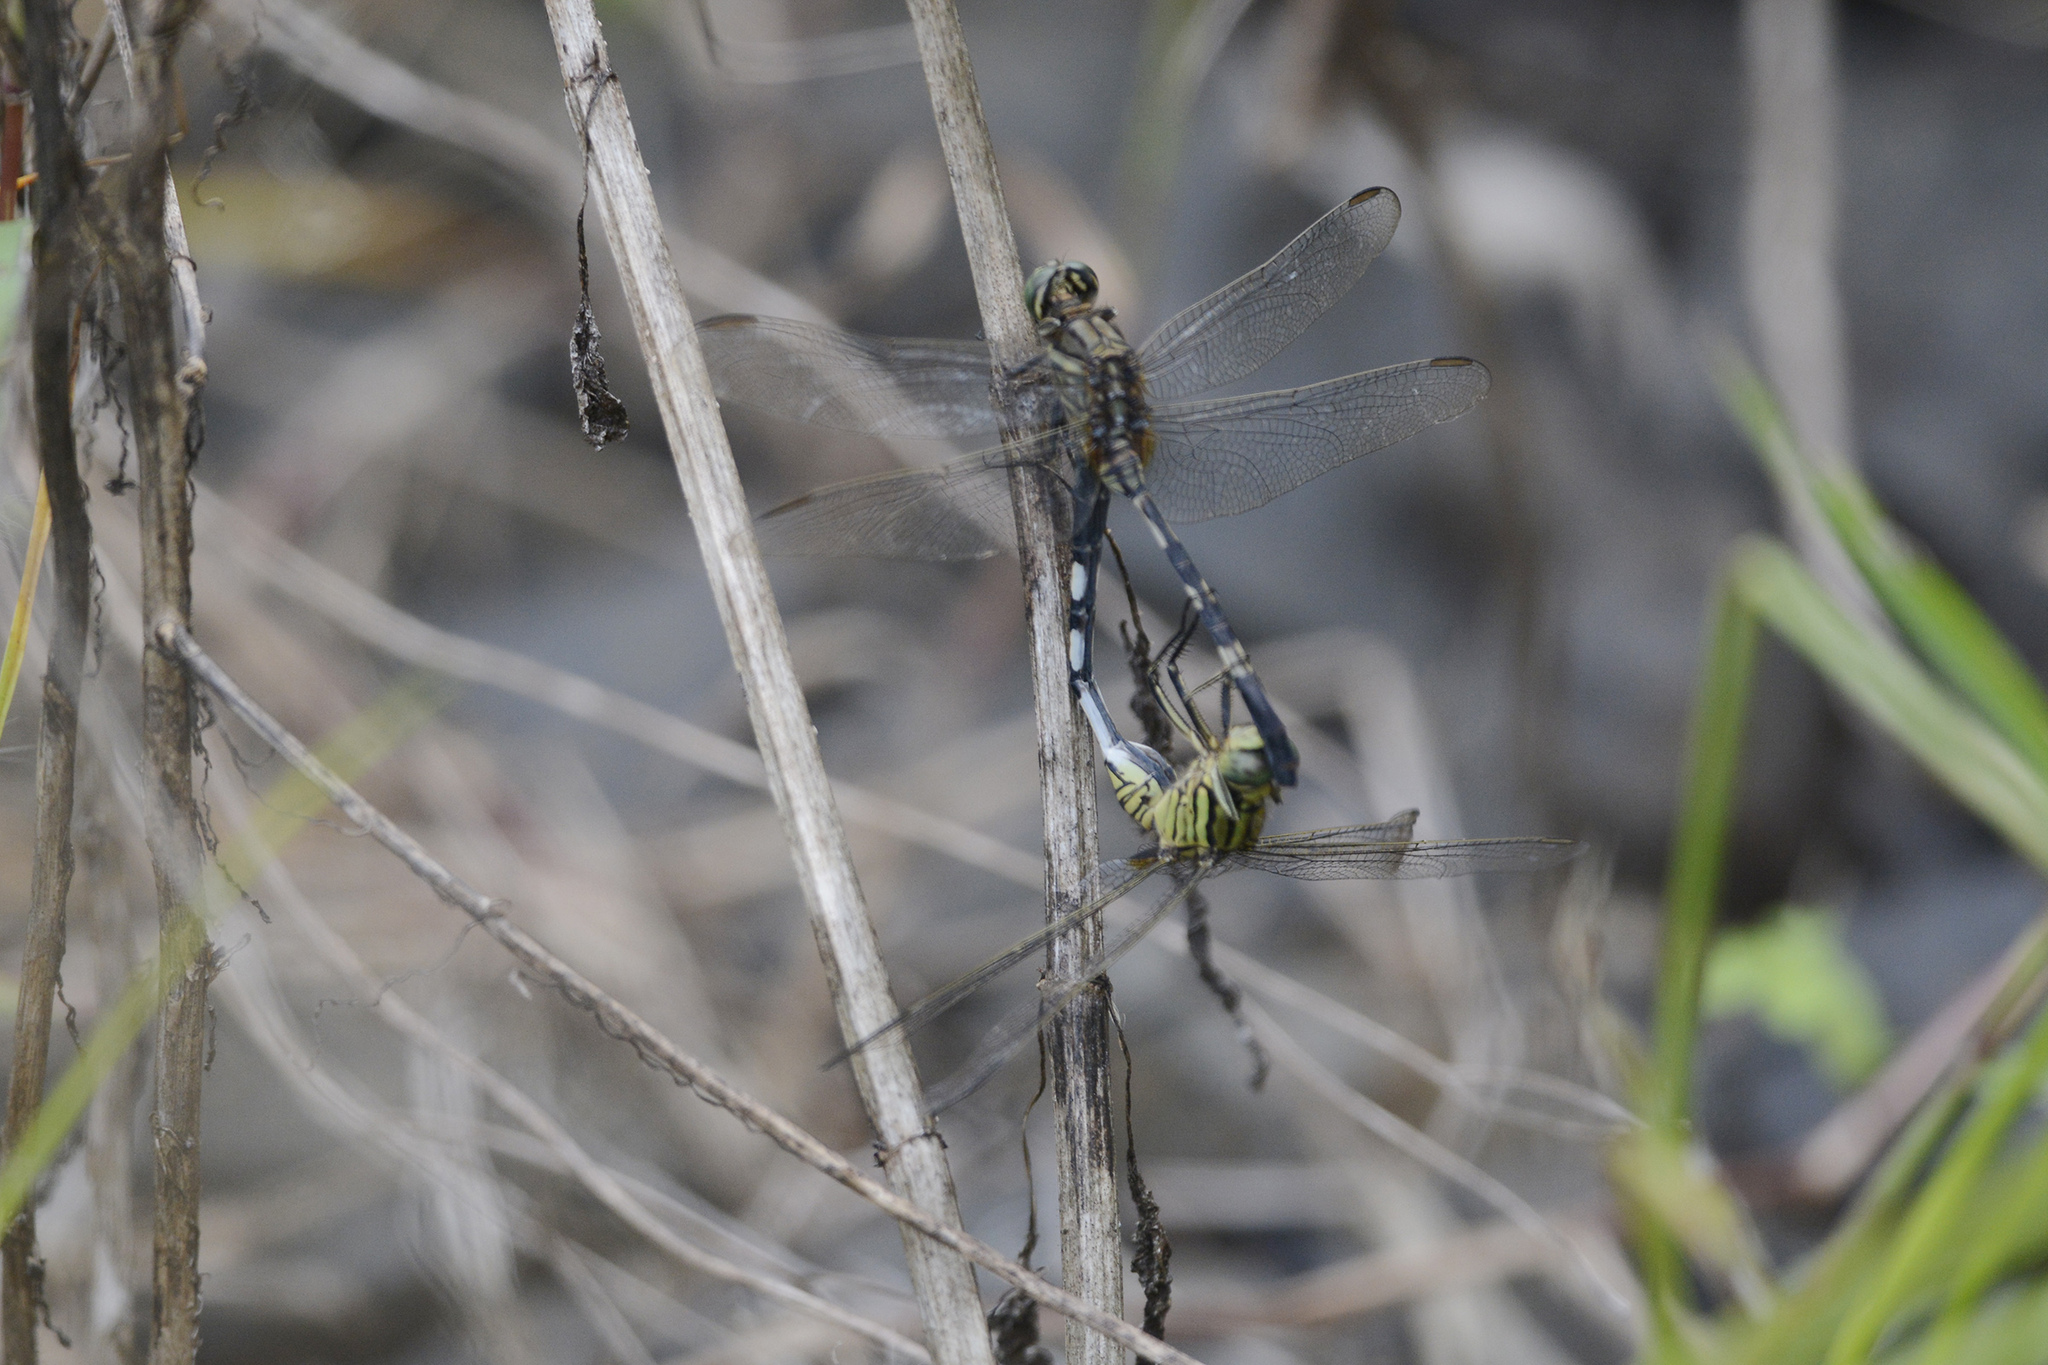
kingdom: Animalia
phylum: Arthropoda
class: Insecta
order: Odonata
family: Libellulidae
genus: Orthetrum
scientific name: Orthetrum sabina
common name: Slender skimmer
